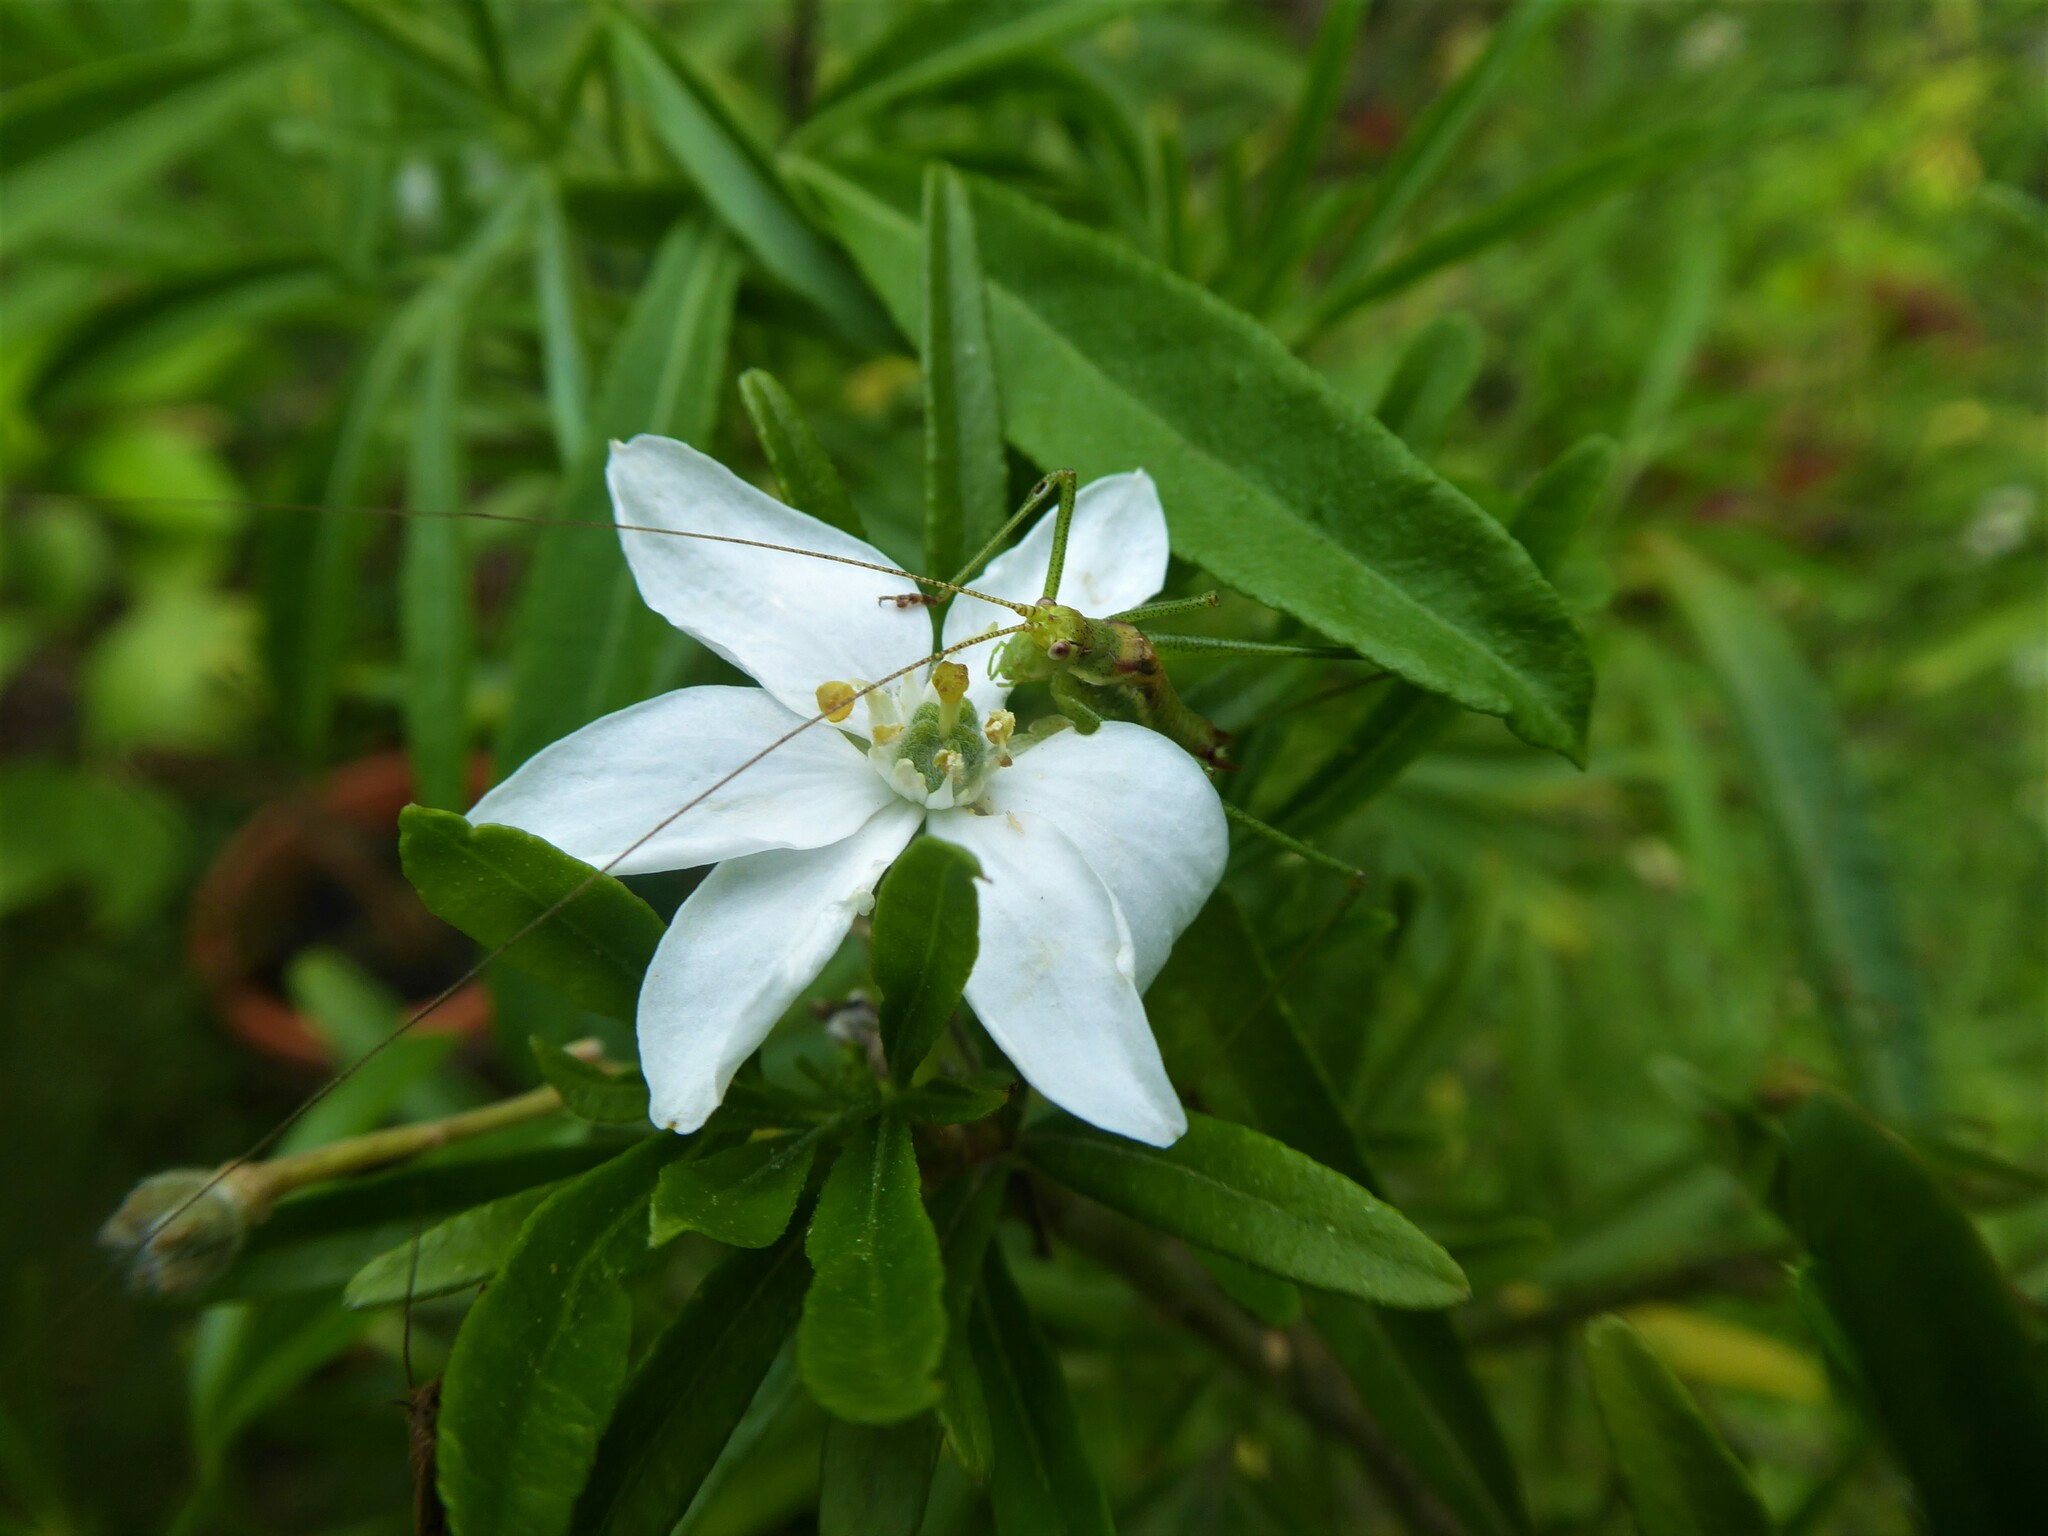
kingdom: Animalia
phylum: Arthropoda
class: Insecta
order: Orthoptera
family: Tettigoniidae
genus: Leptophyes
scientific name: Leptophyes albovittata
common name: Striped bush-cricket
